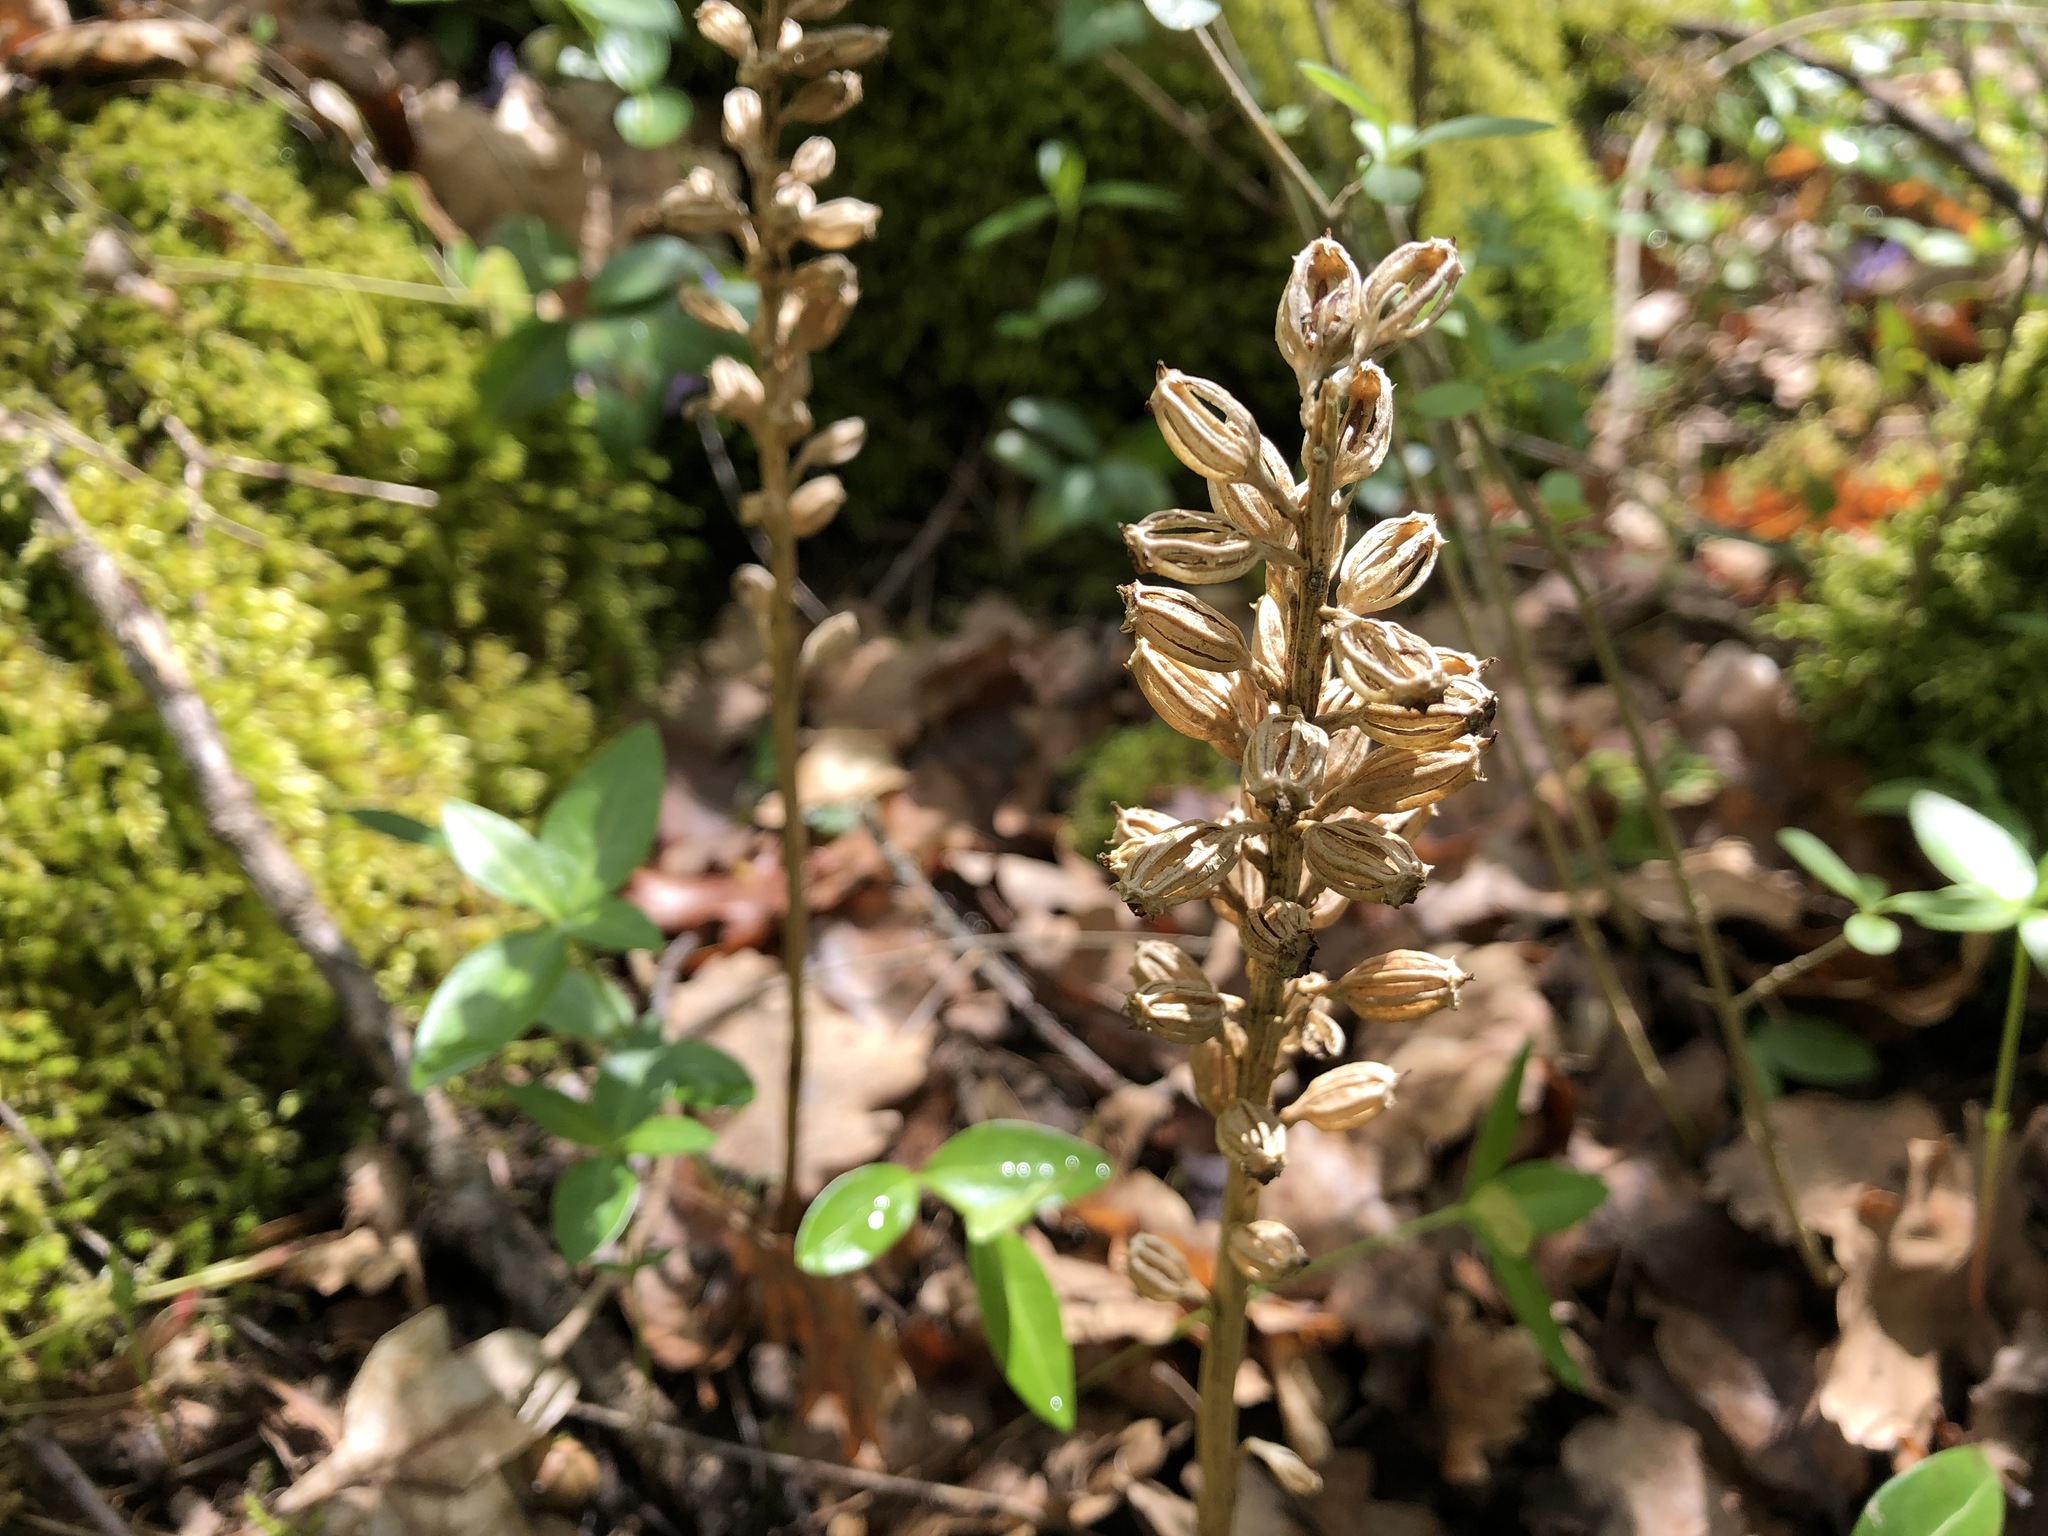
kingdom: Plantae
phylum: Tracheophyta
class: Liliopsida
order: Asparagales
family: Orchidaceae
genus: Neottia
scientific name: Neottia nidus-avis
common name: Bird's-nest orchid
